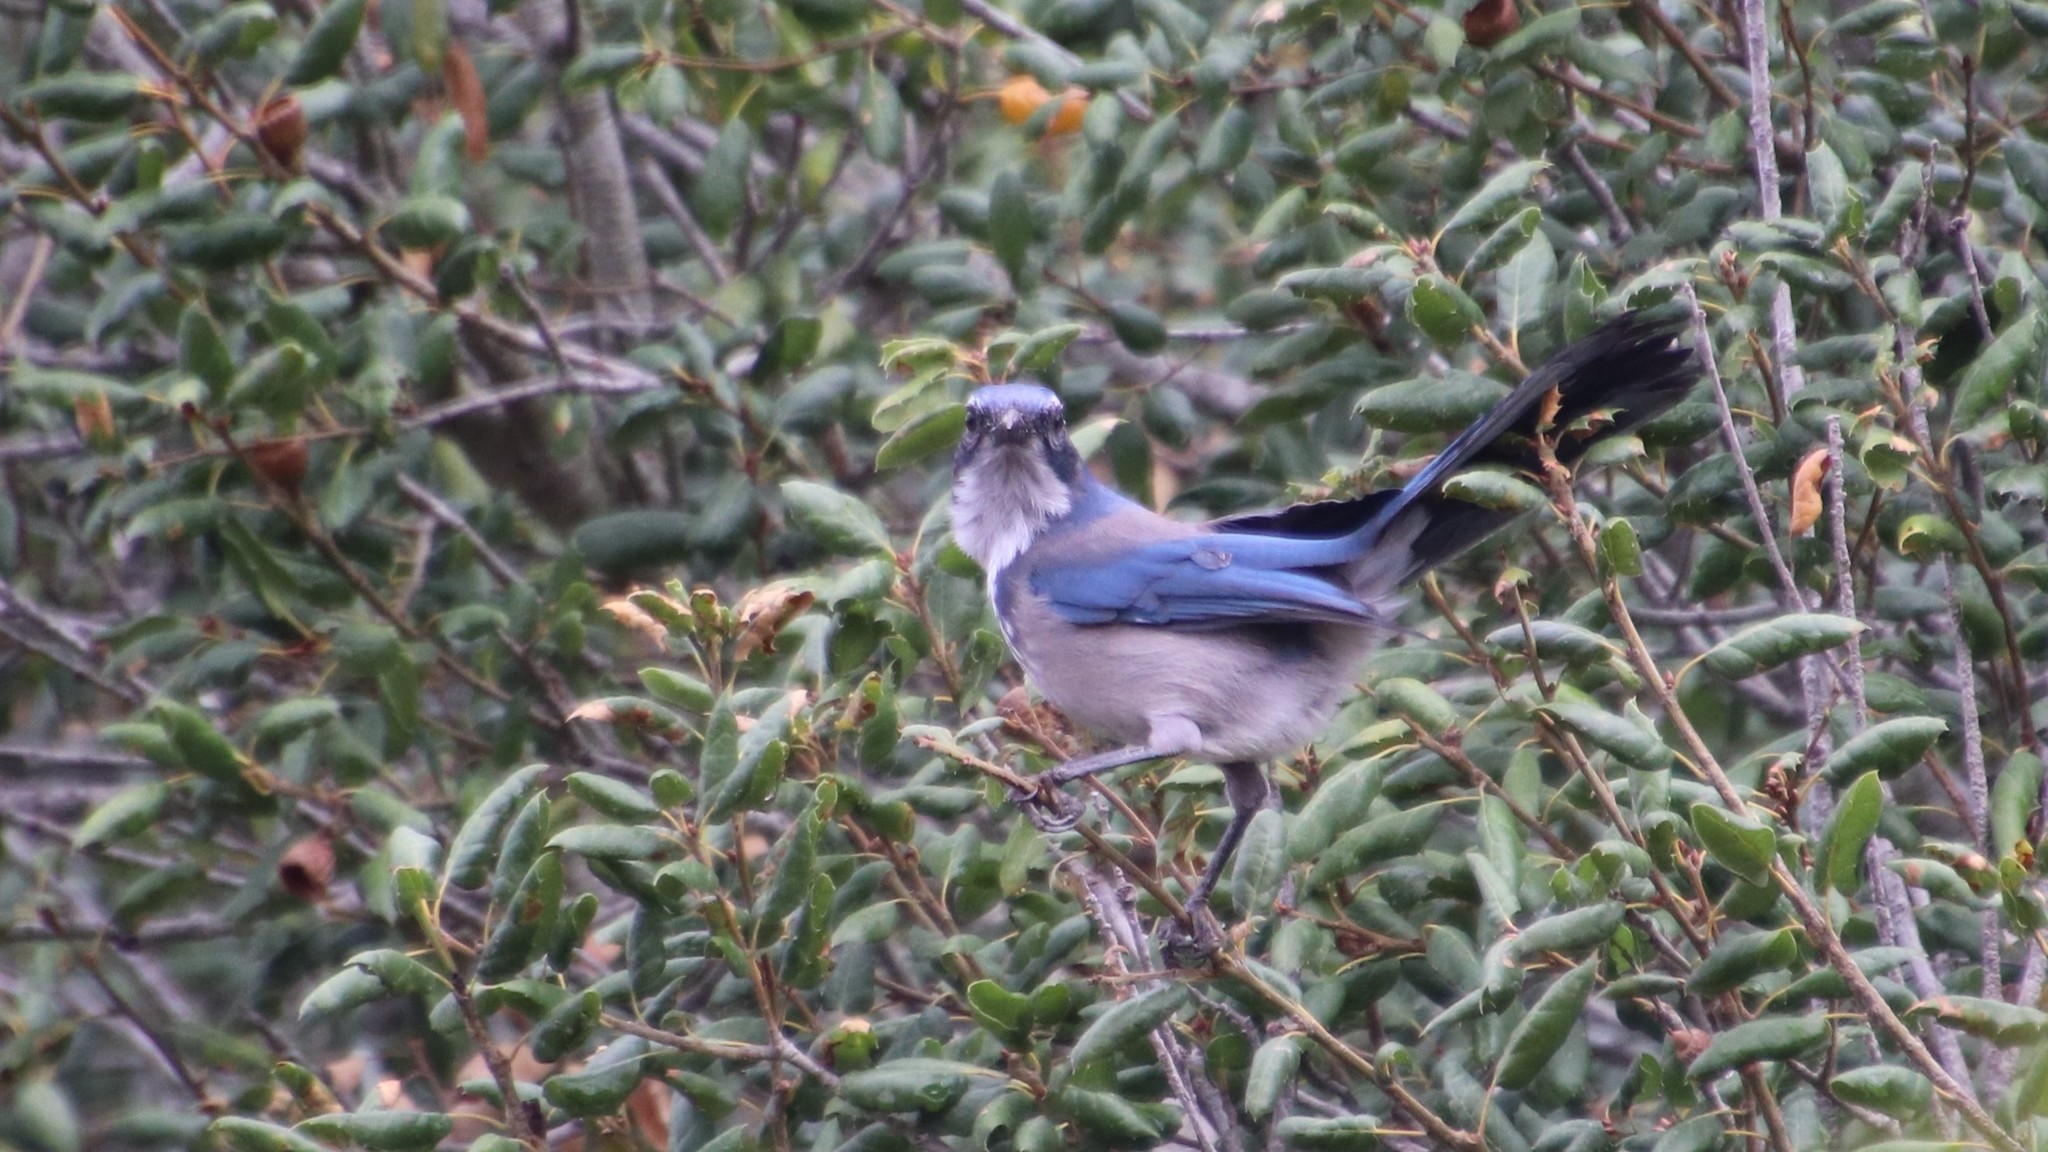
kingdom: Animalia
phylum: Chordata
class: Aves
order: Passeriformes
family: Corvidae
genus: Aphelocoma
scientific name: Aphelocoma californica
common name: California scrub-jay
